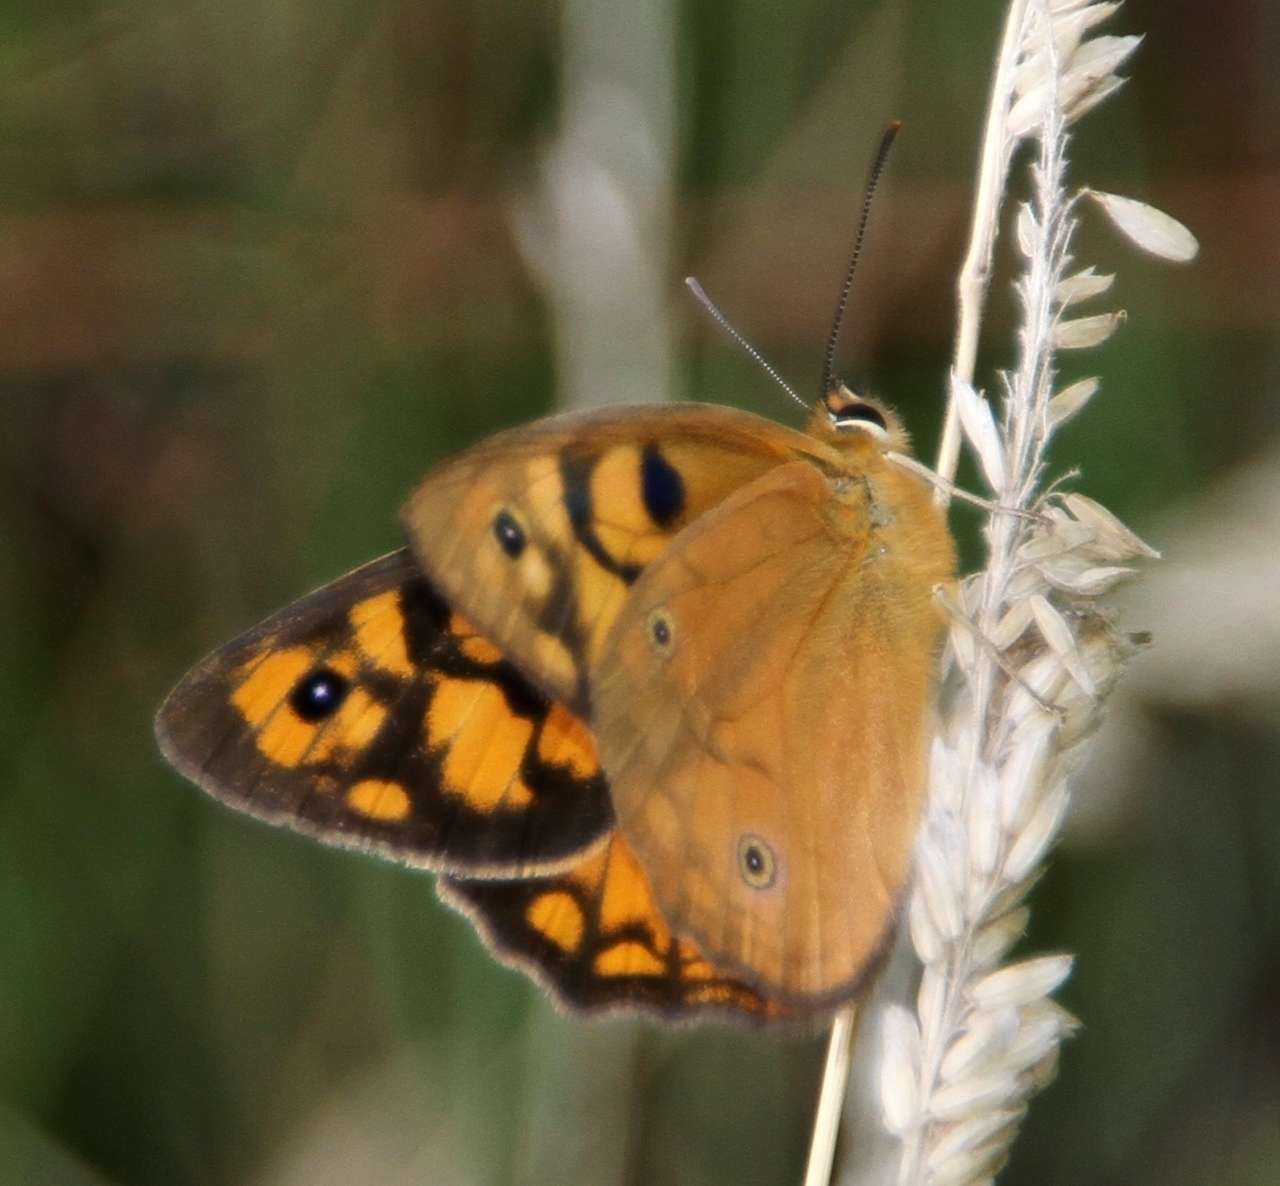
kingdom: Animalia
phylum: Arthropoda
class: Insecta
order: Lepidoptera
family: Nymphalidae
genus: Heteronympha
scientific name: Heteronympha penelope
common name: Shouldered brown
